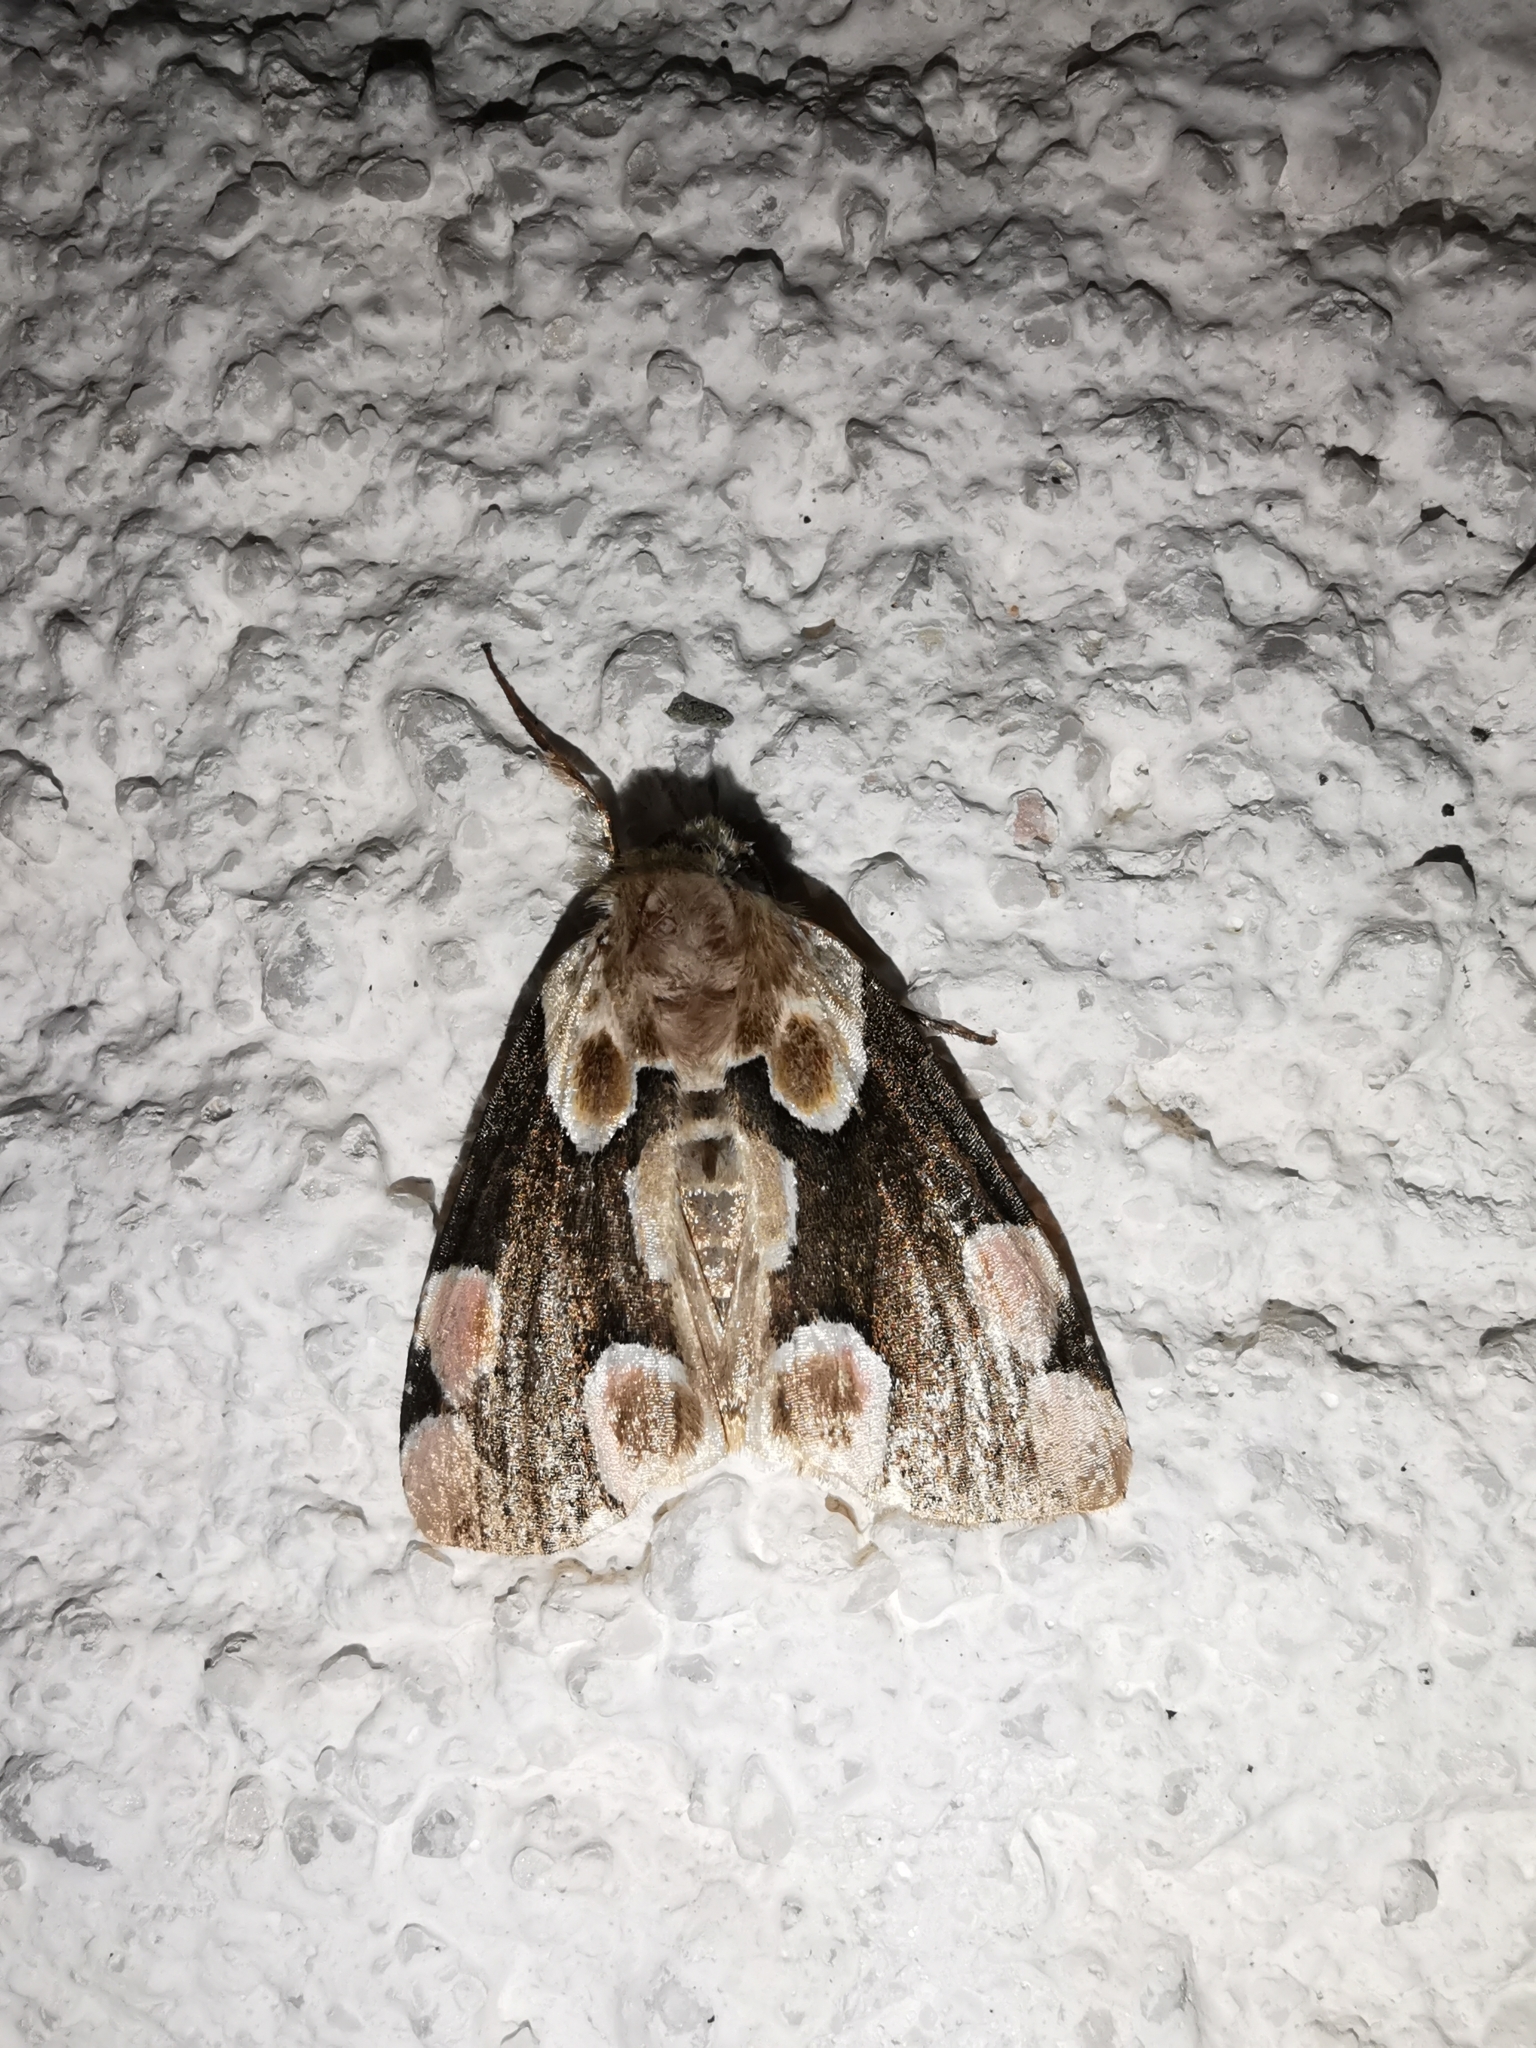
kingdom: Animalia
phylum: Arthropoda
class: Insecta
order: Lepidoptera
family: Drepanidae
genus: Thyatira
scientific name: Thyatira batis
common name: Peach blossom
